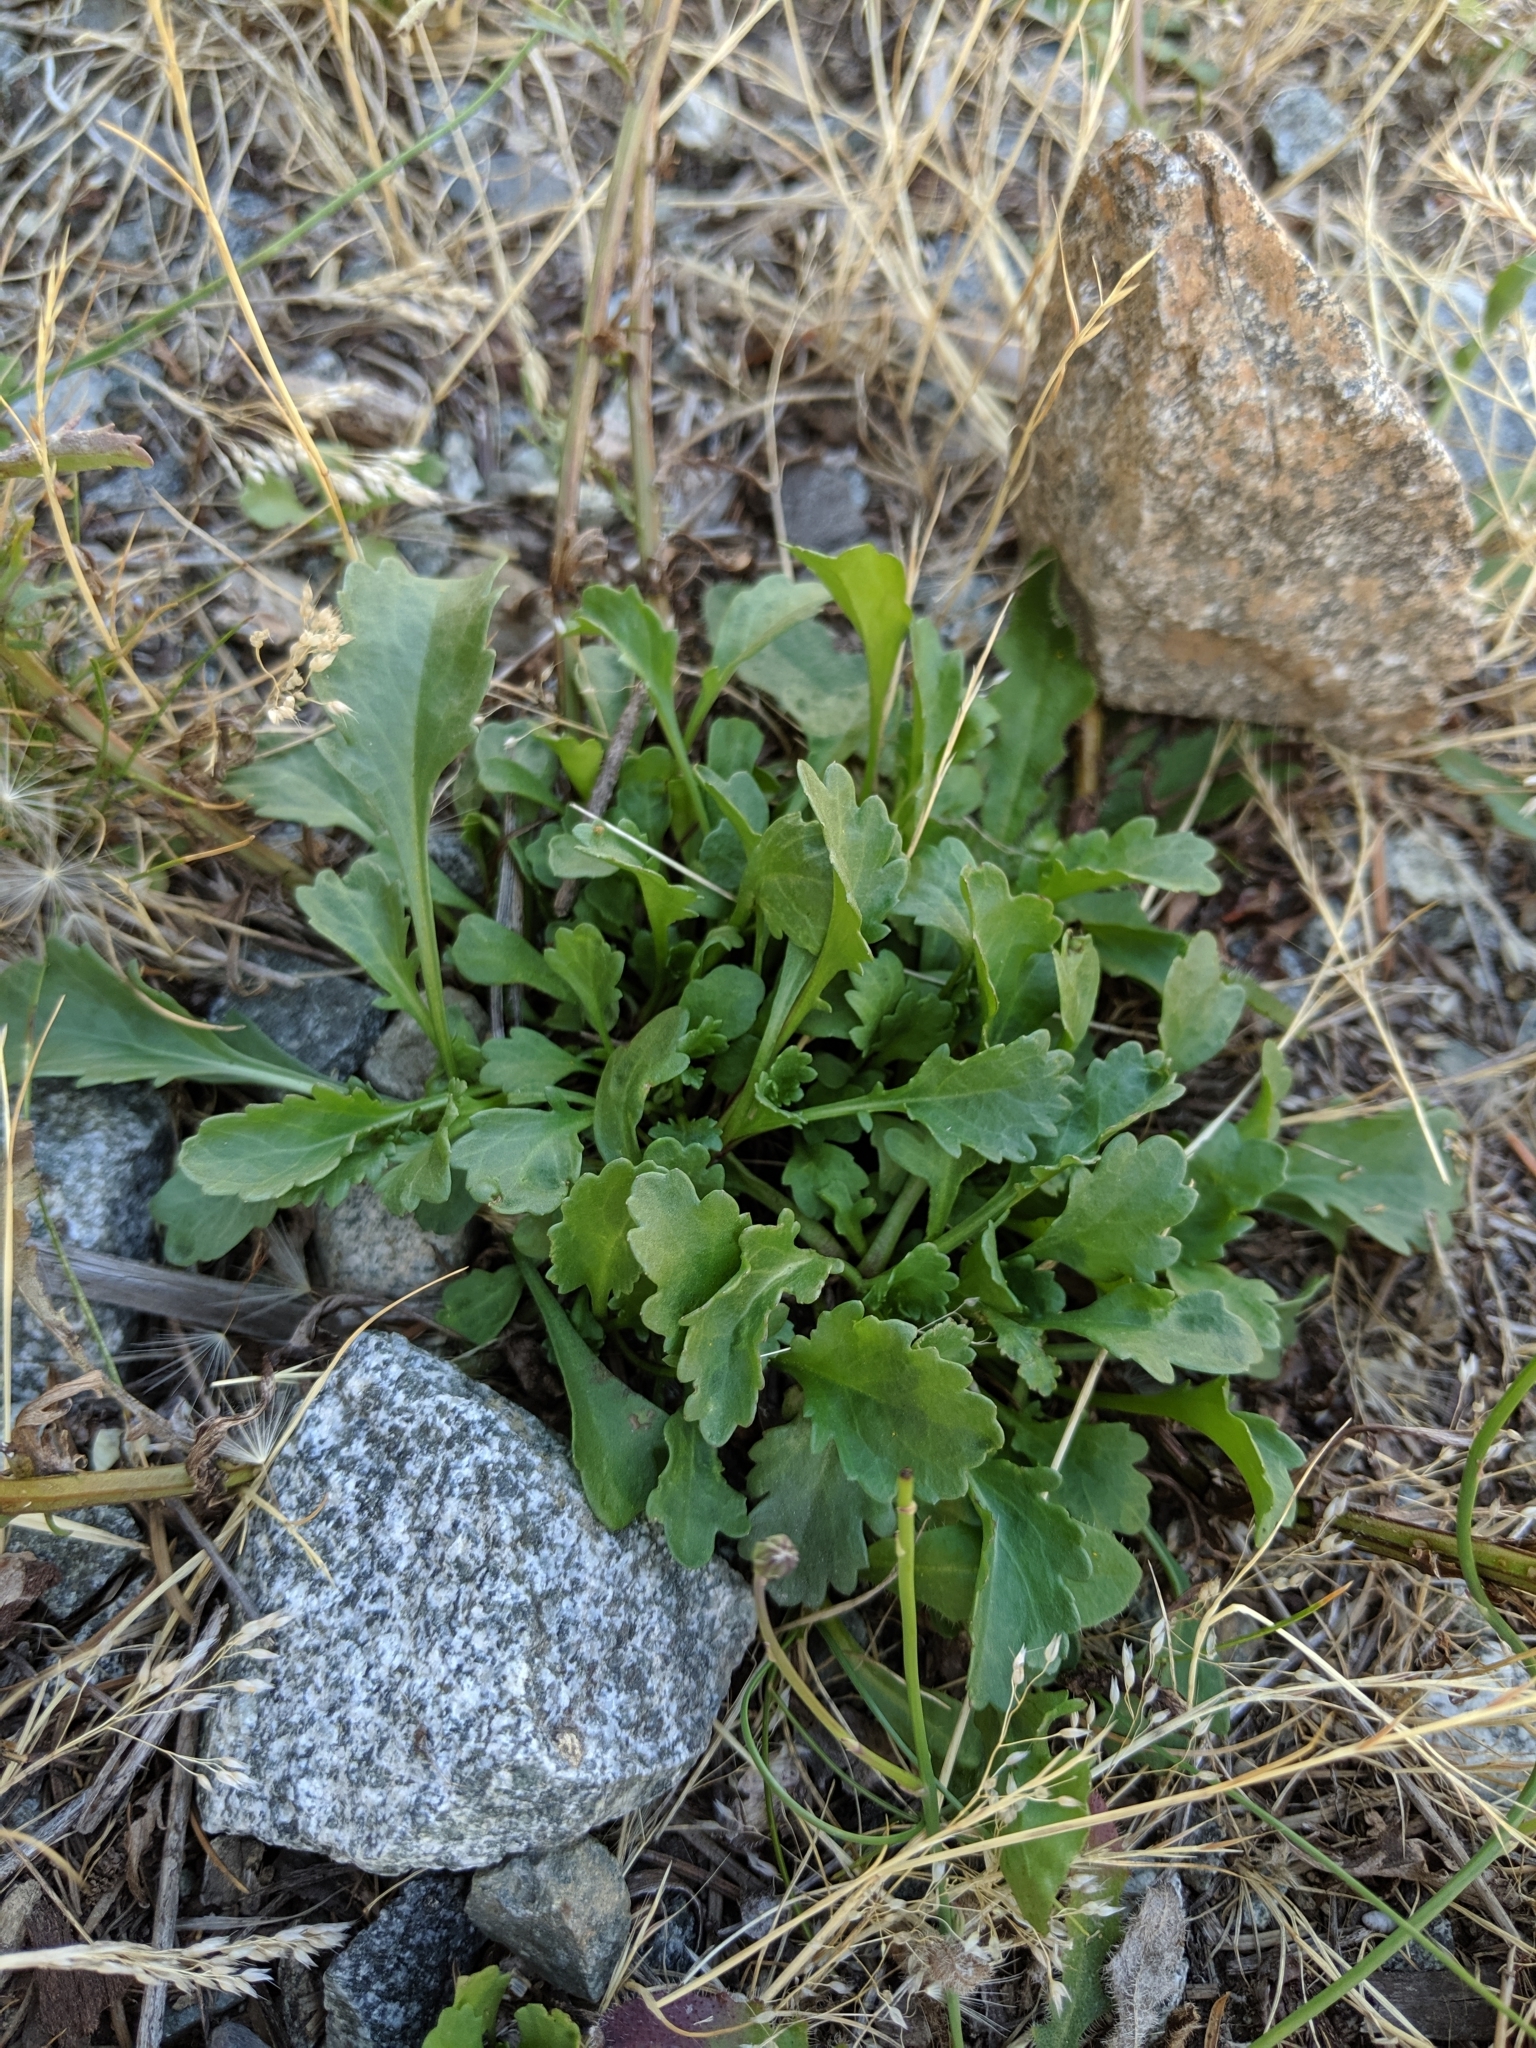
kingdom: Plantae
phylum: Tracheophyta
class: Magnoliopsida
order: Asterales
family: Asteraceae
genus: Leucanthemum
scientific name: Leucanthemum vulgare
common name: Oxeye daisy
